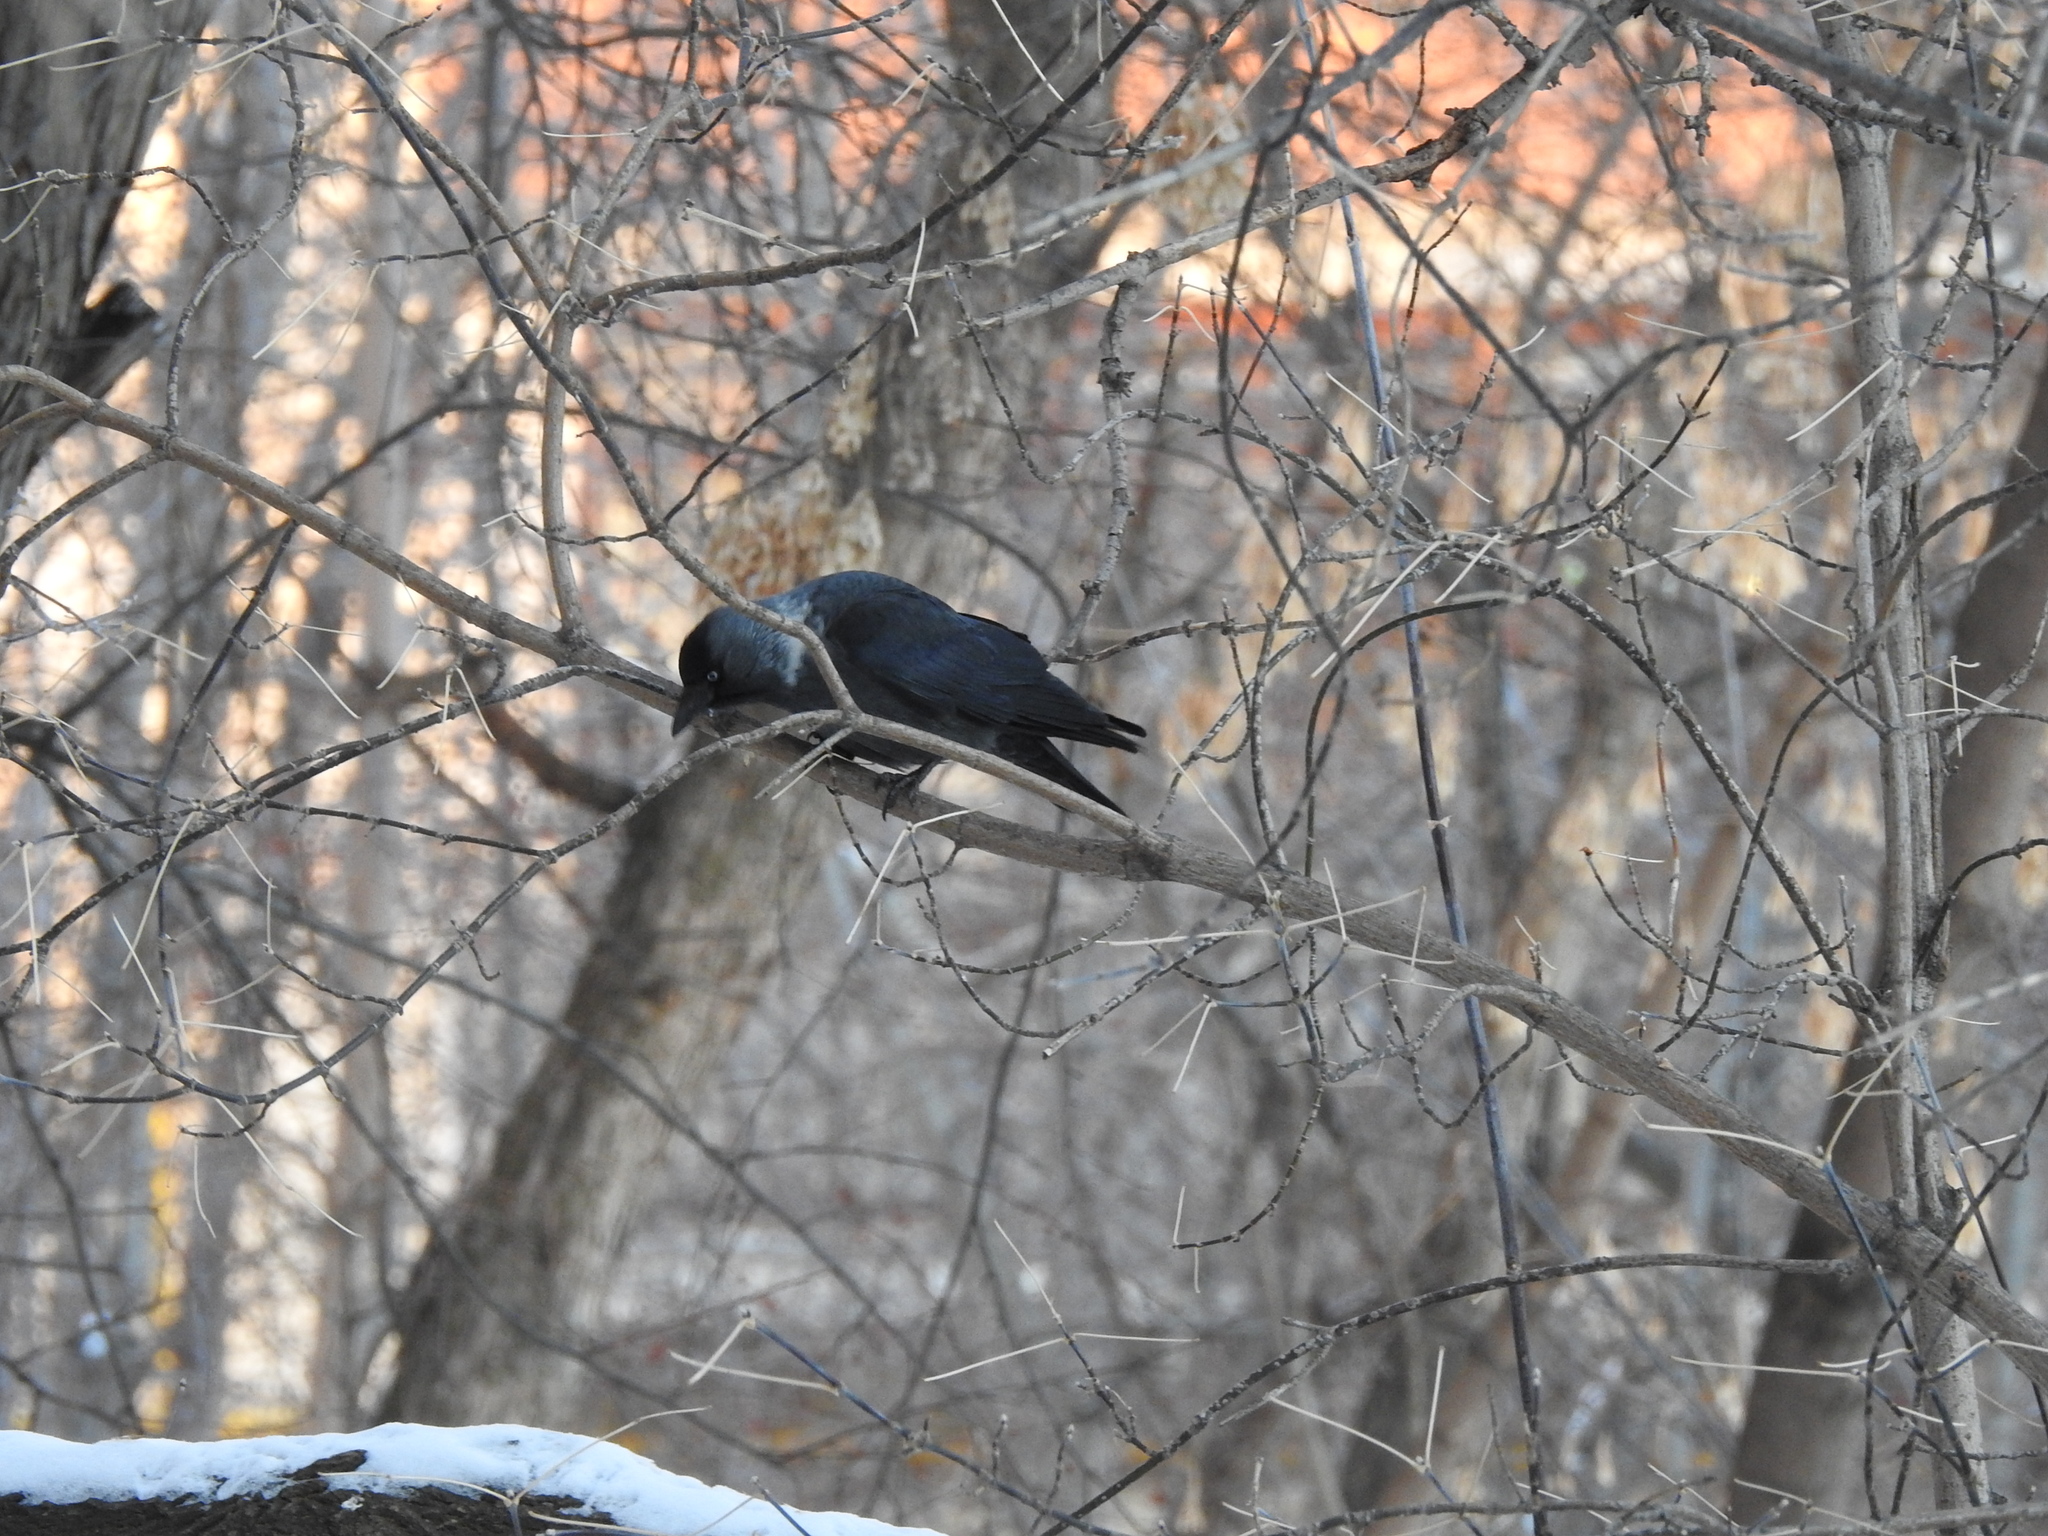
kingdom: Animalia
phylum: Chordata
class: Aves
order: Passeriformes
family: Corvidae
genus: Coloeus
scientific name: Coloeus monedula
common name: Western jackdaw
